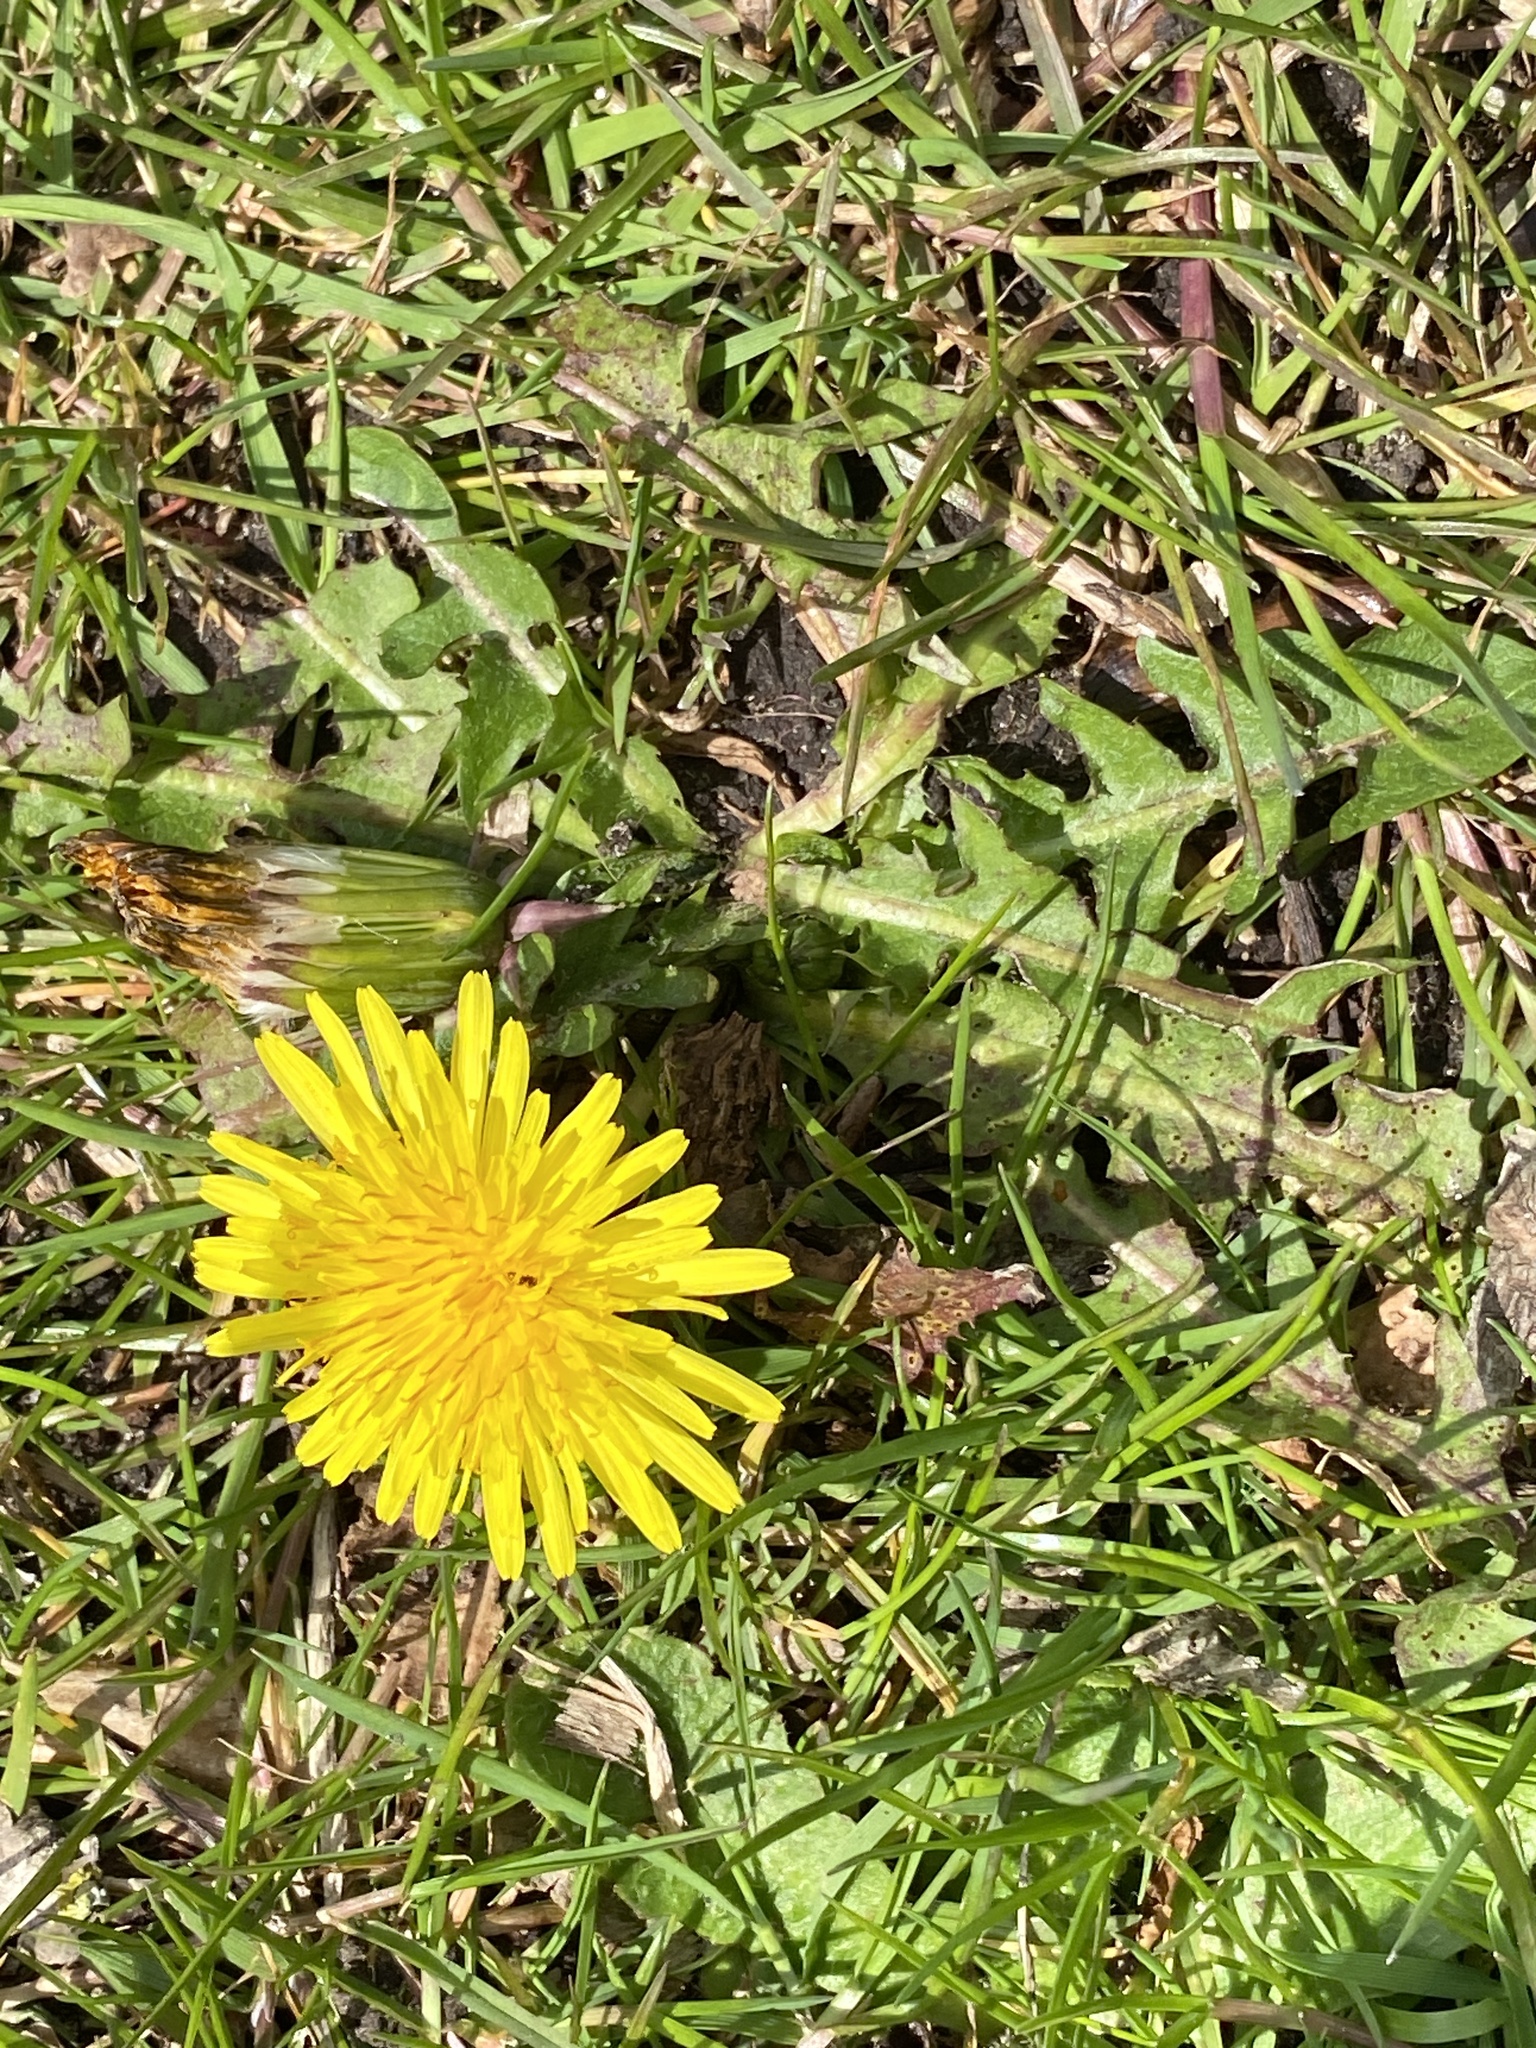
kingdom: Plantae
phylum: Tracheophyta
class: Magnoliopsida
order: Asterales
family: Asteraceae
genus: Taraxacum
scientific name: Taraxacum officinale
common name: Common dandelion
